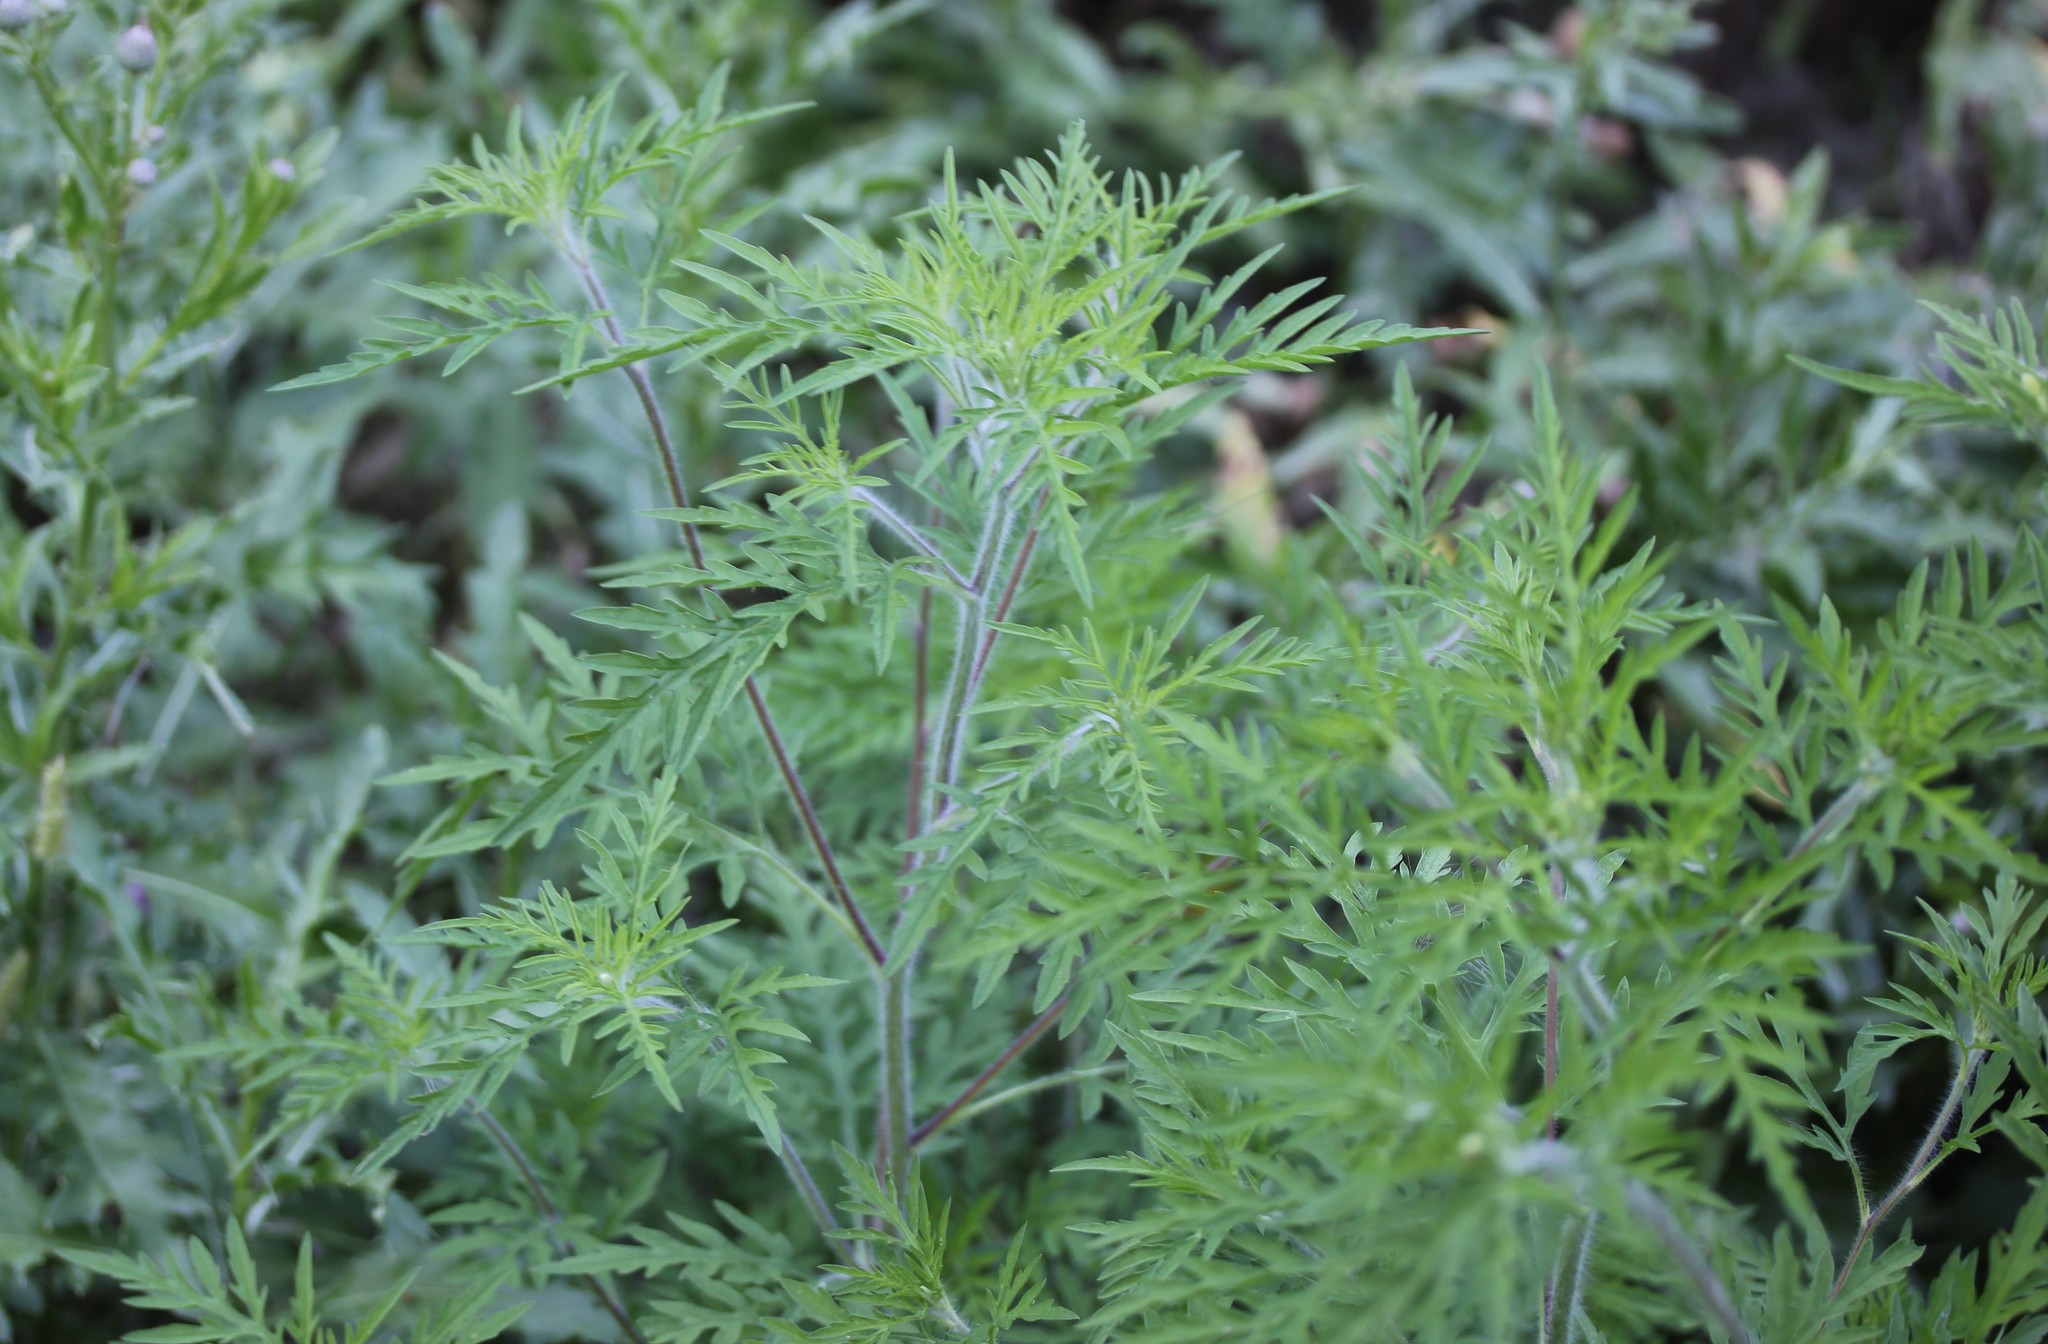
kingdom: Plantae
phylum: Tracheophyta
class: Magnoliopsida
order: Asterales
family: Asteraceae
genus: Ambrosia
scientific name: Ambrosia artemisiifolia
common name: Annual ragweed
